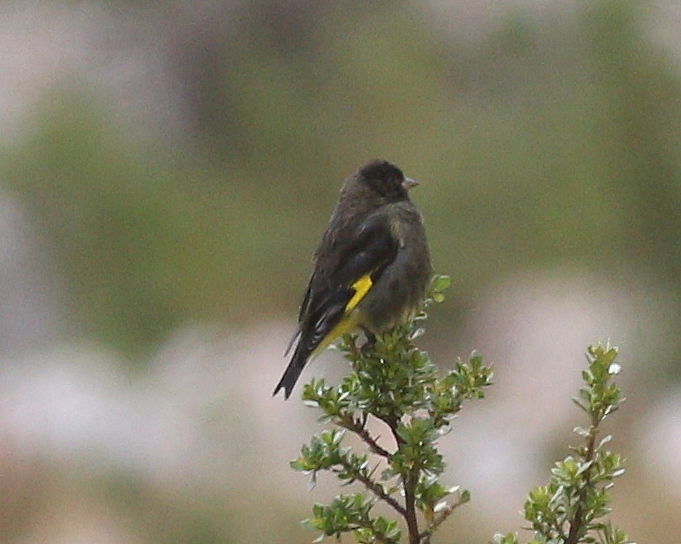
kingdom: Animalia
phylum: Chordata
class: Aves
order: Passeriformes
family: Fringillidae
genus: Spinus
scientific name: Spinus atratus
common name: Black siskin
